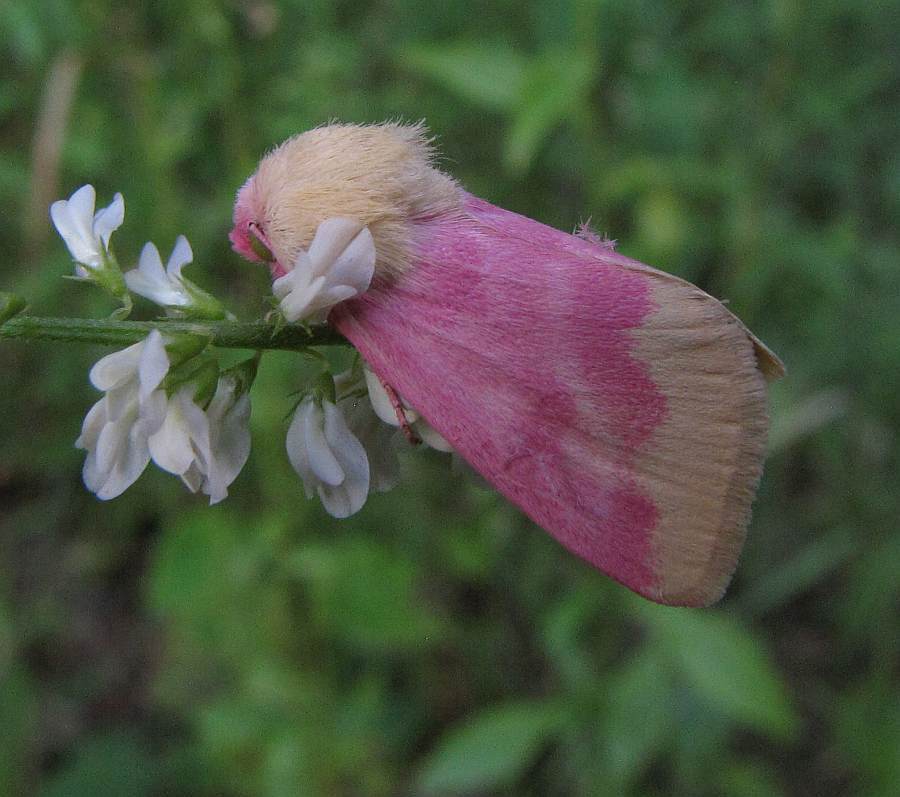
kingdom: Animalia
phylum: Arthropoda
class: Insecta
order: Lepidoptera
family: Noctuidae
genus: Schinia
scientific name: Schinia florida
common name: Primrose moth
